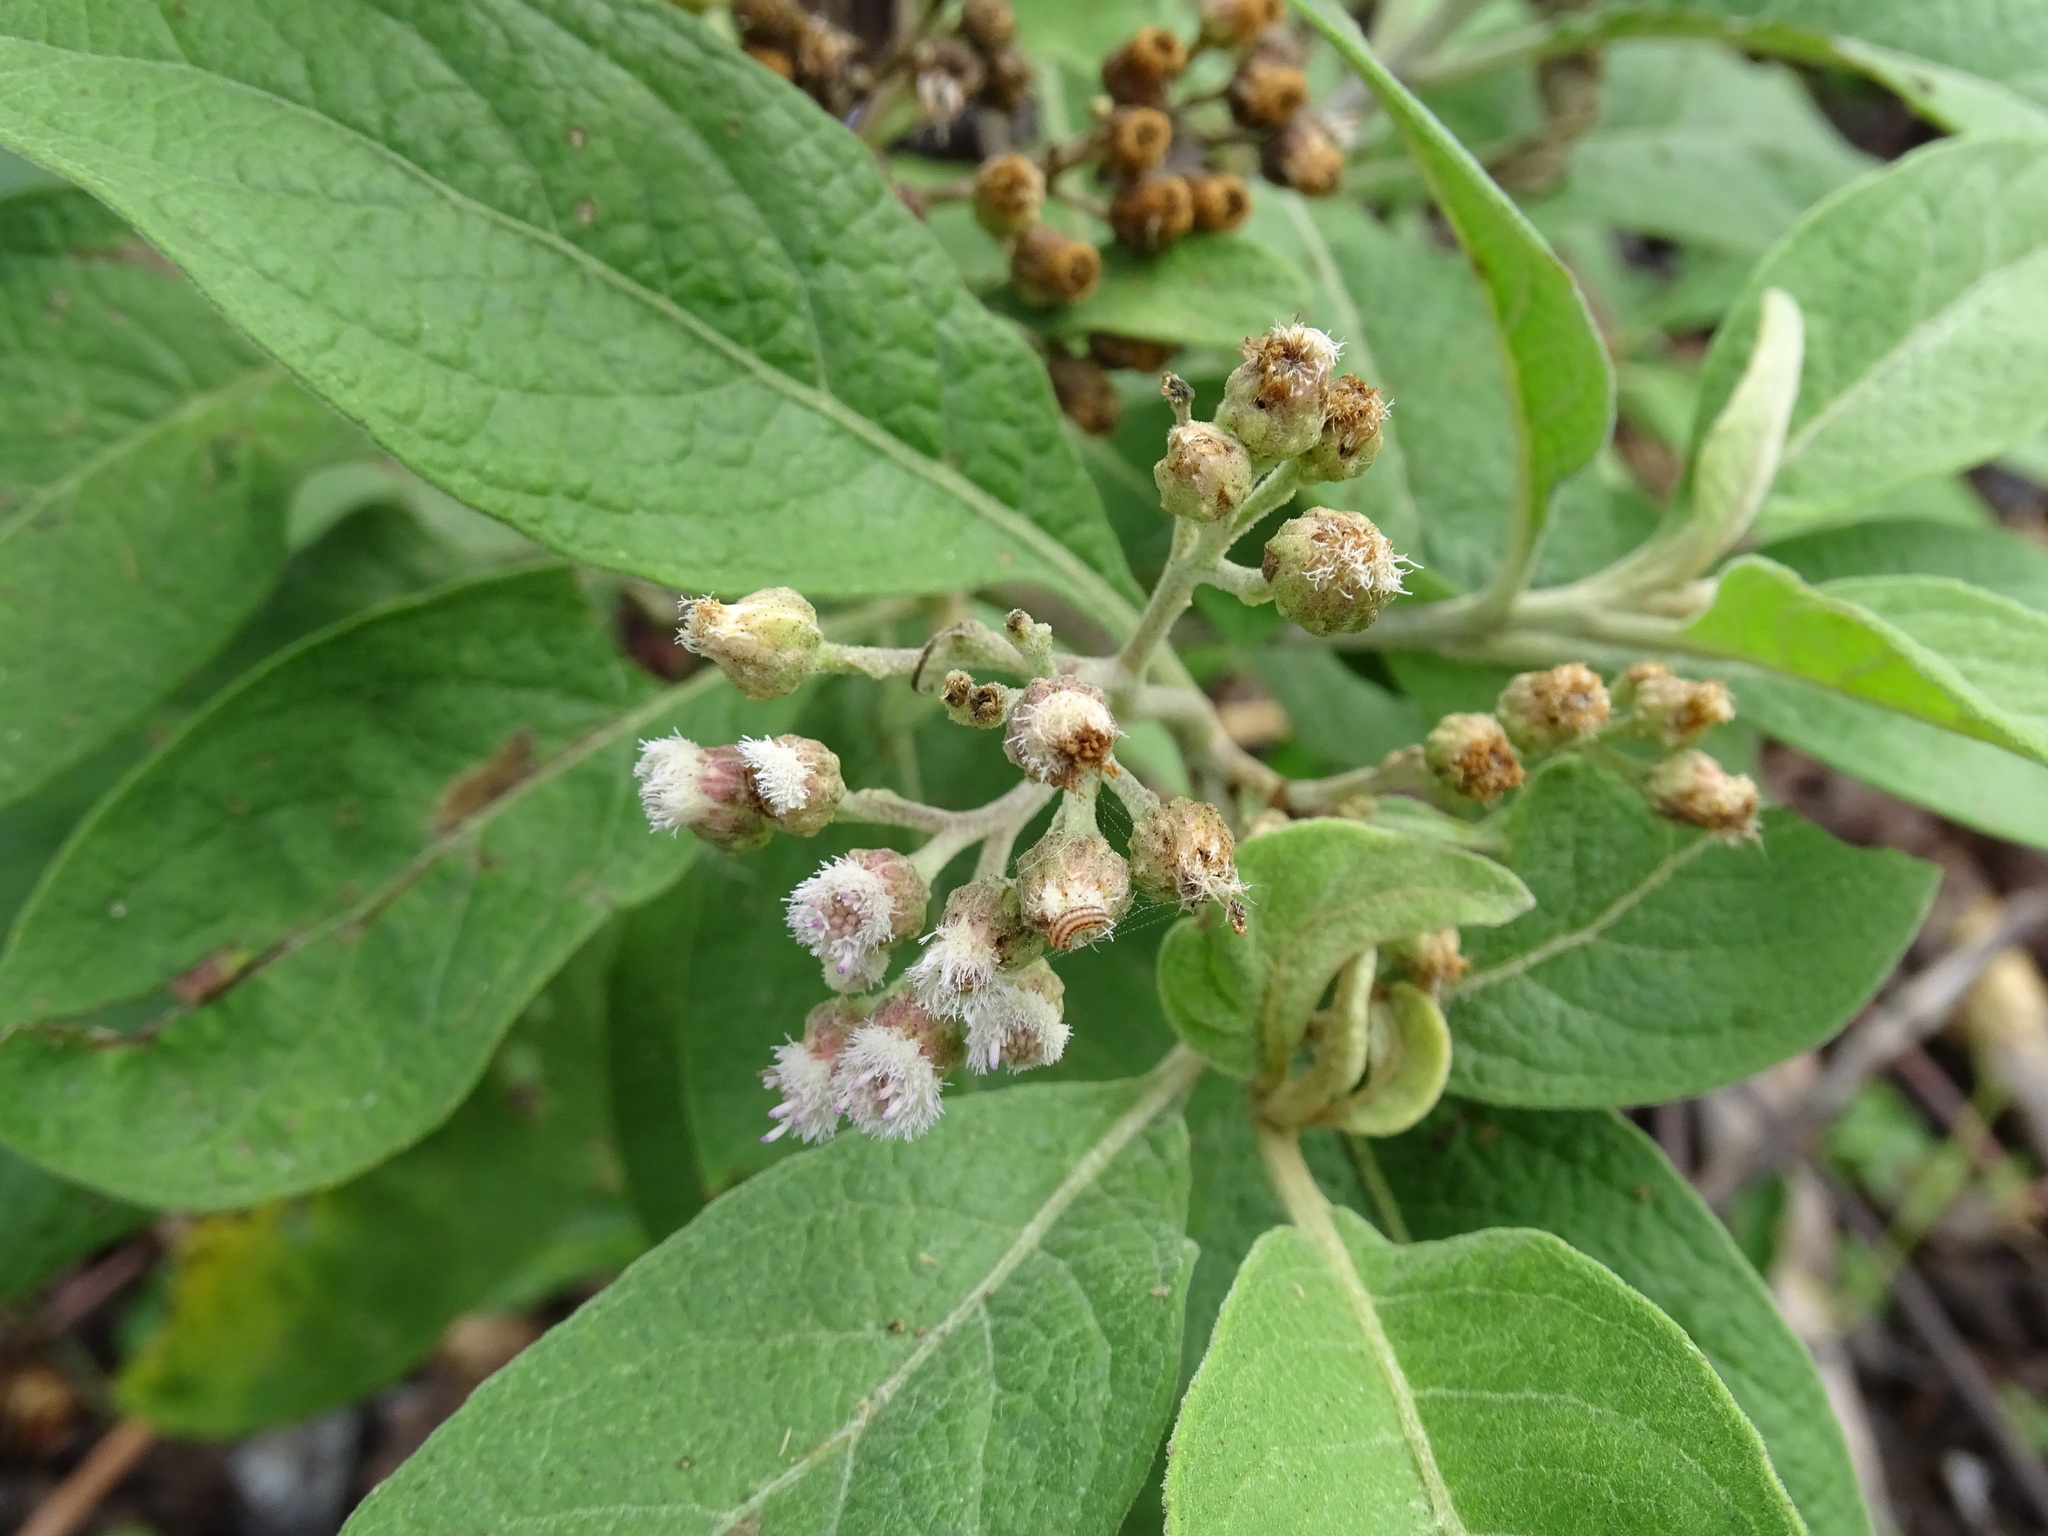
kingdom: Plantae
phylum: Tracheophyta
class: Magnoliopsida
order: Asterales
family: Asteraceae
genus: Pluchea
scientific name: Pluchea carolinensis
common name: Marsh fleabane
